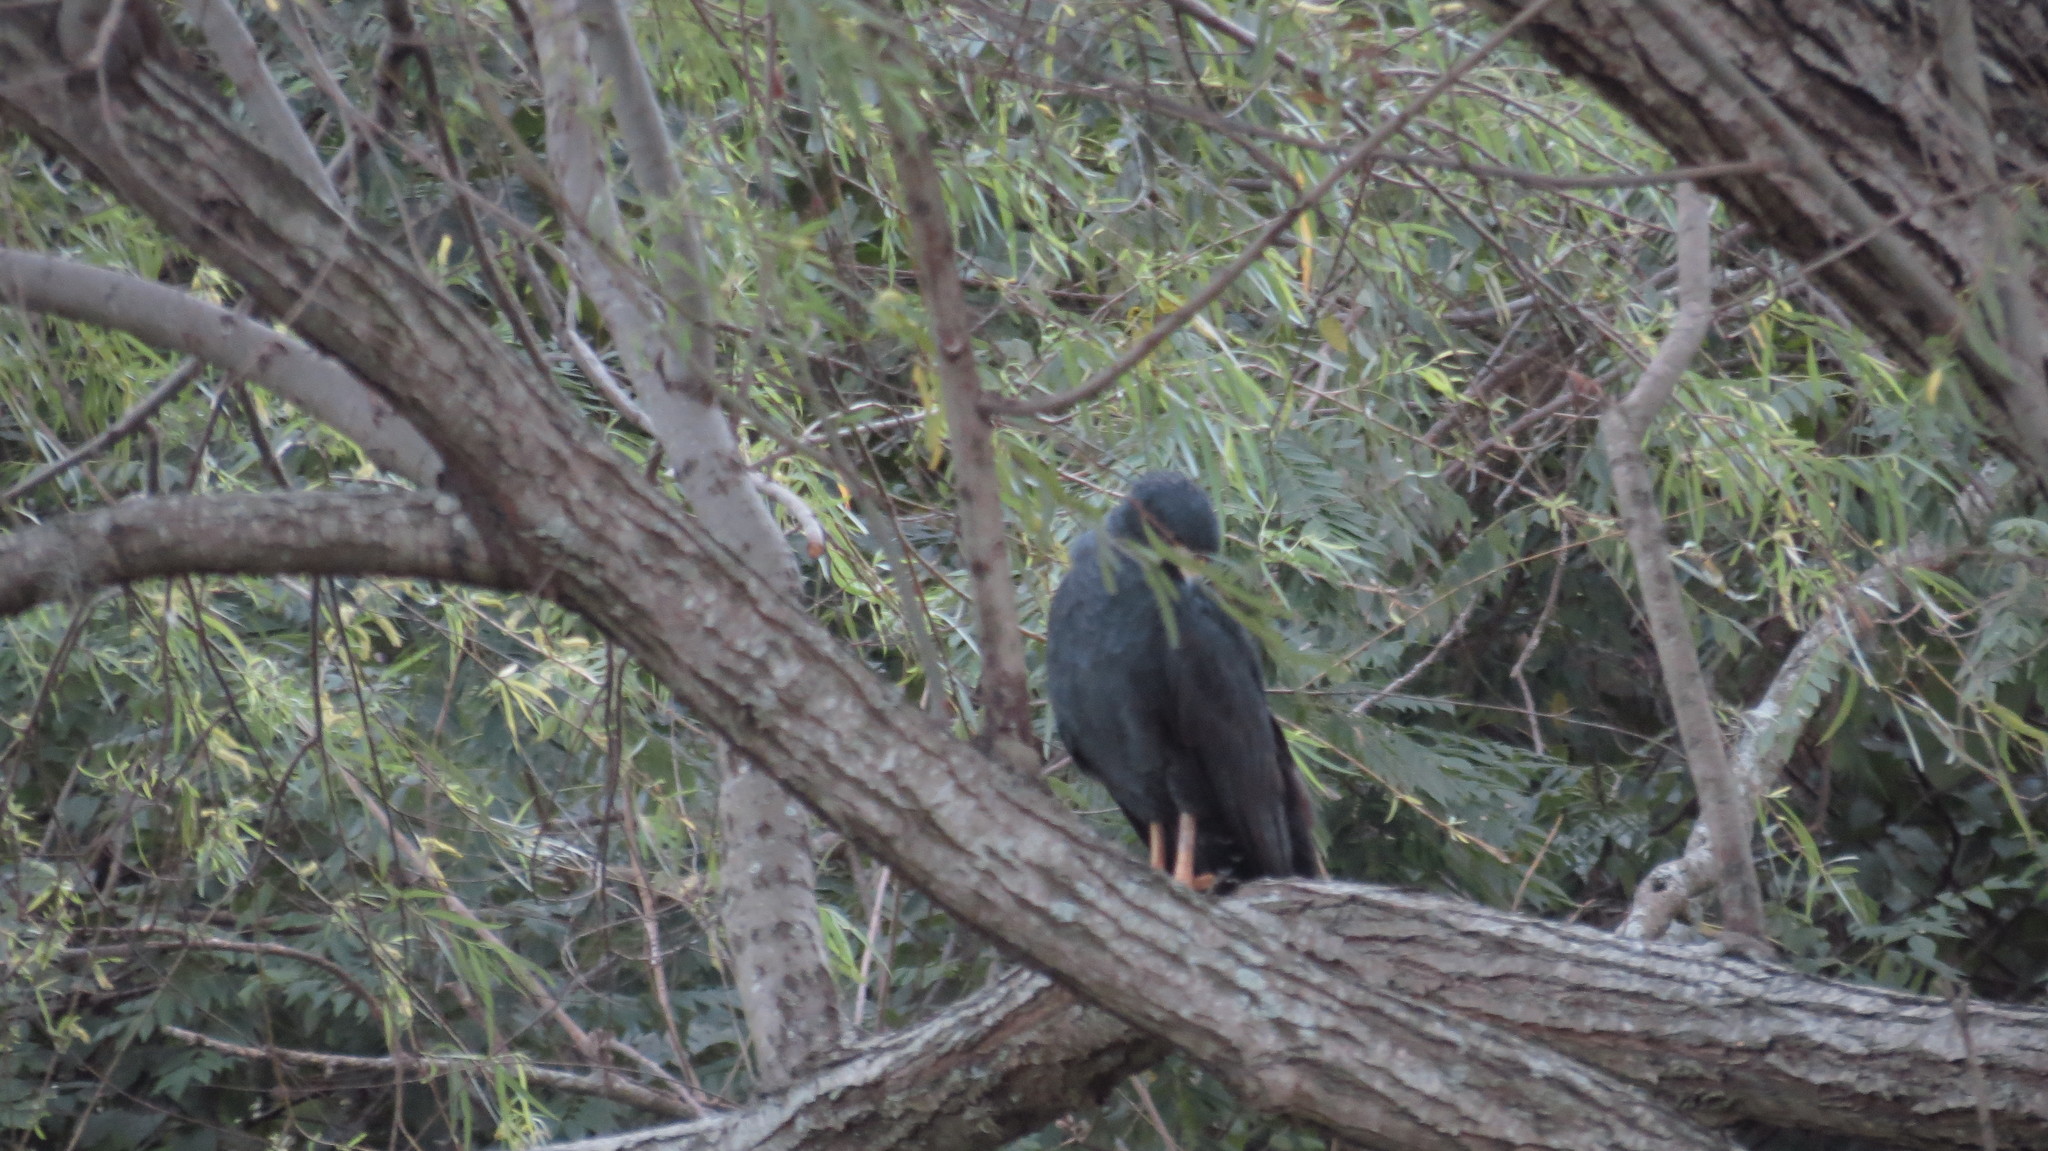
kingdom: Animalia
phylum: Chordata
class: Aves
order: Accipitriformes
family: Accipitridae
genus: Buteogallus
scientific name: Buteogallus anthracinus
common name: Common black hawk
